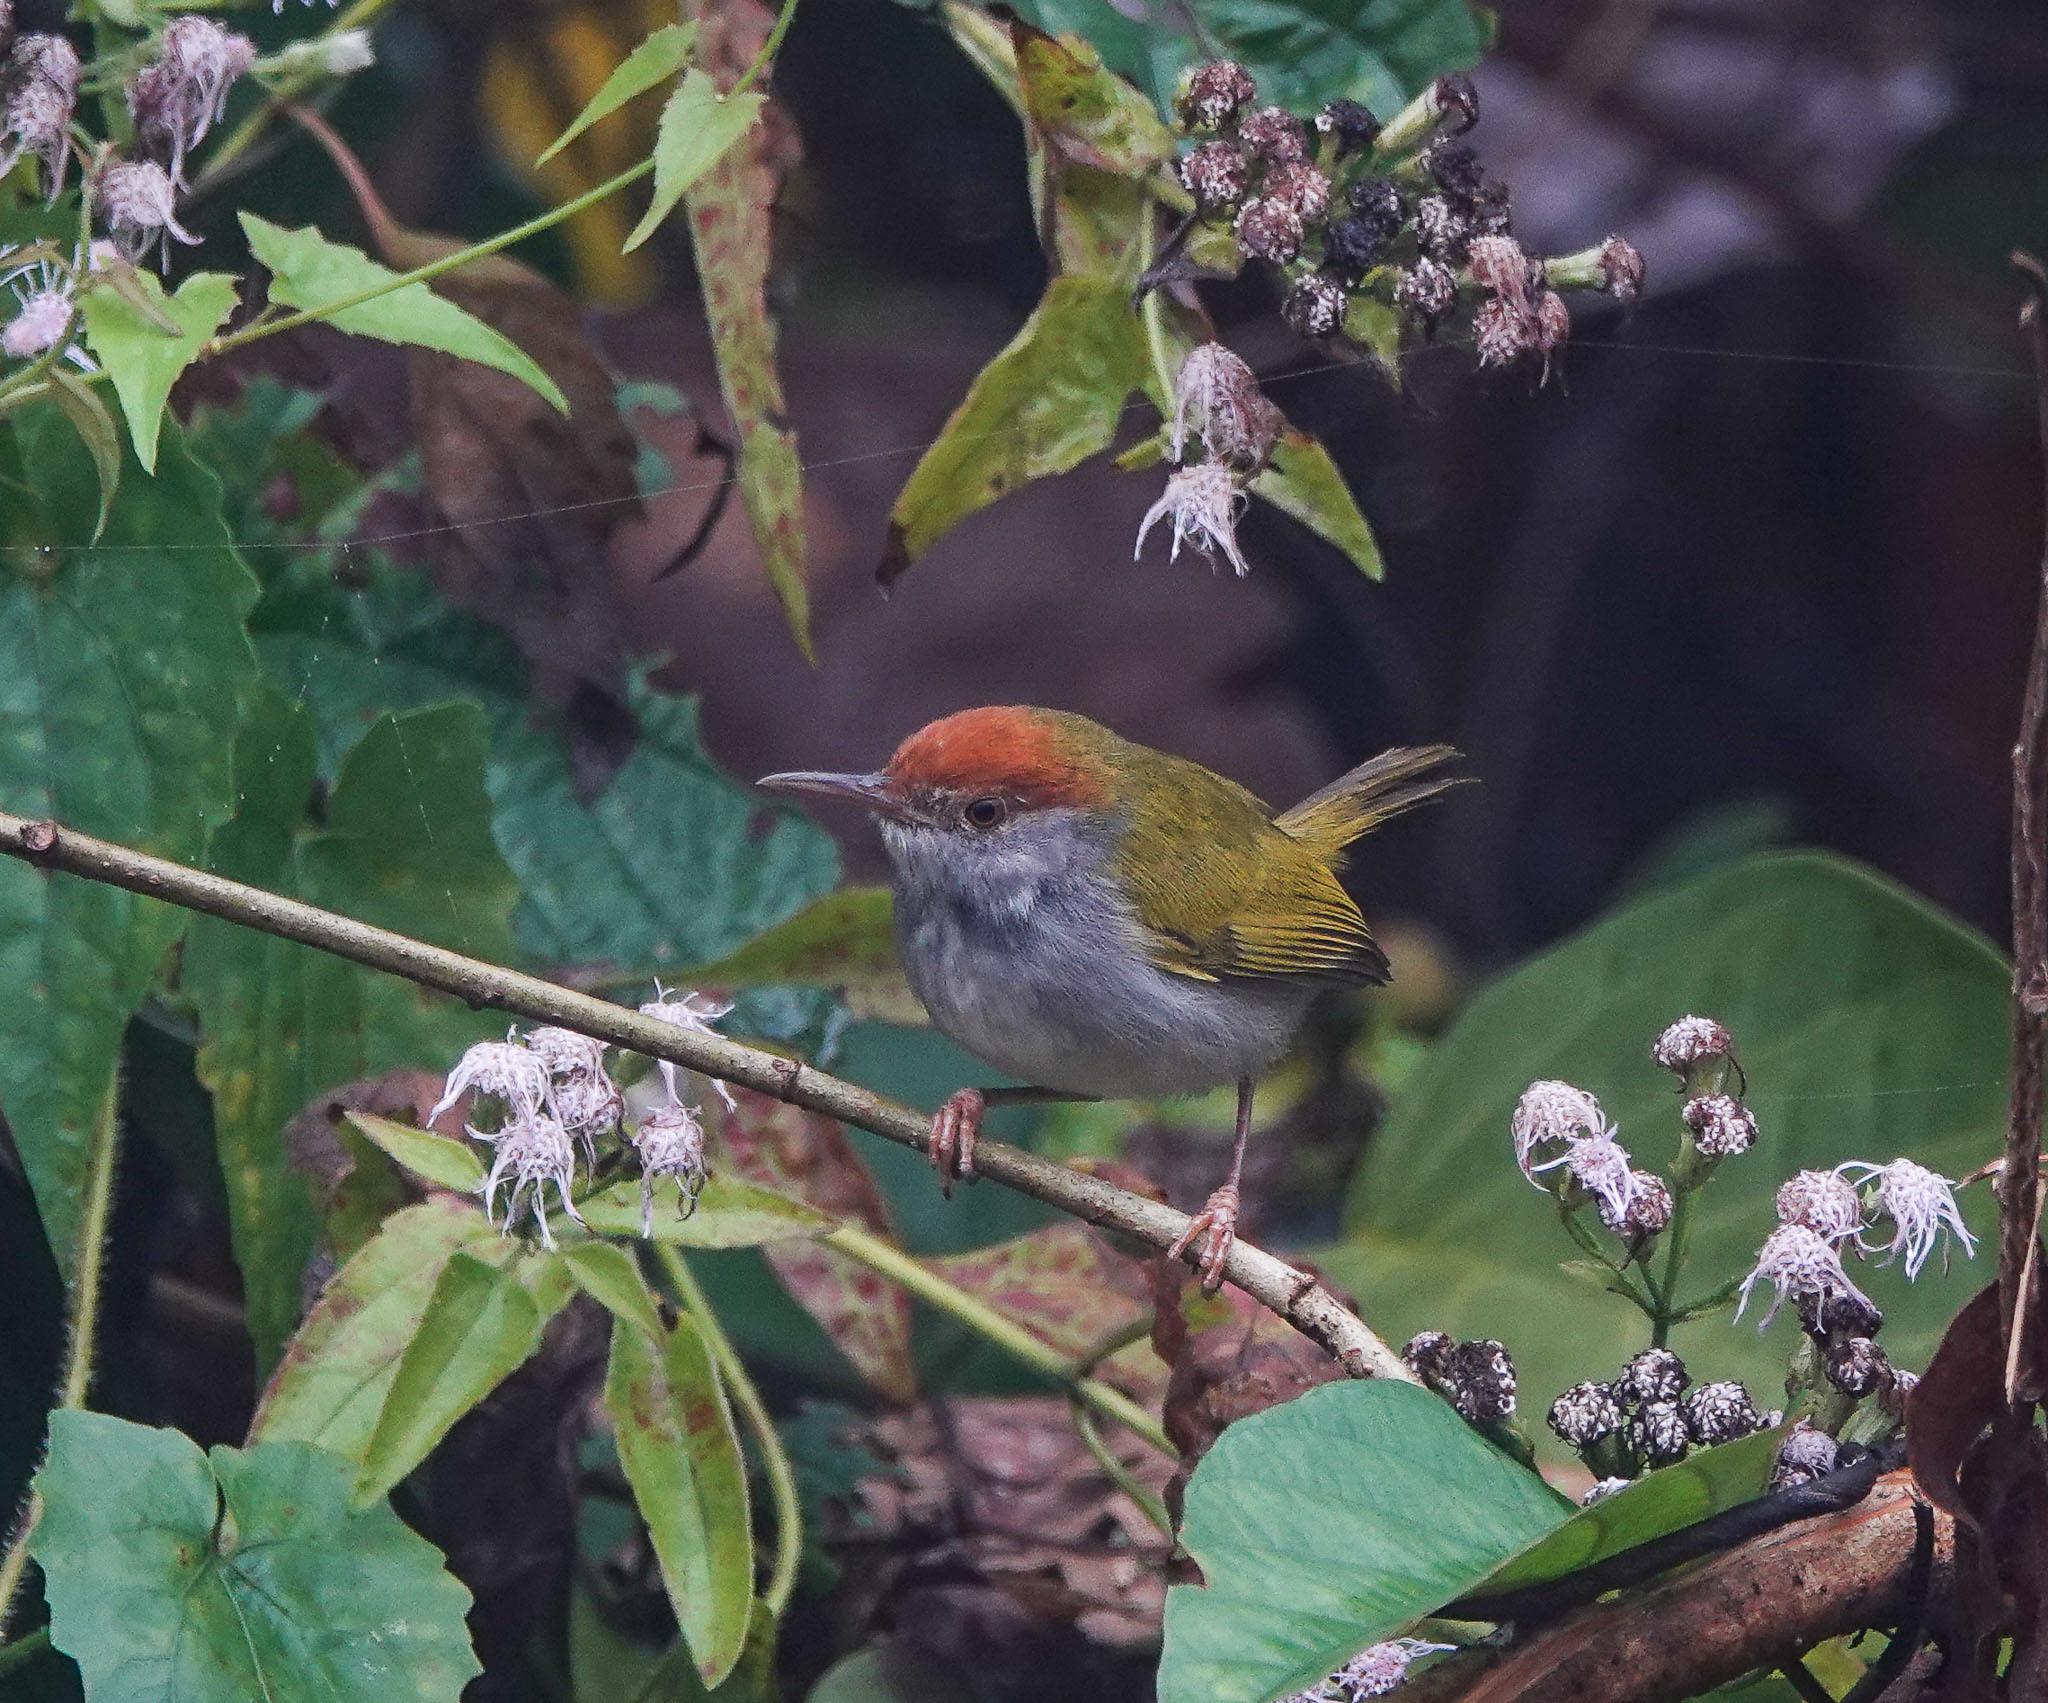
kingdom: Animalia
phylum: Chordata
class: Aves
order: Passeriformes
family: Cisticolidae
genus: Orthotomus
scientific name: Orthotomus atrogularis
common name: Dark-necked tailorbird
